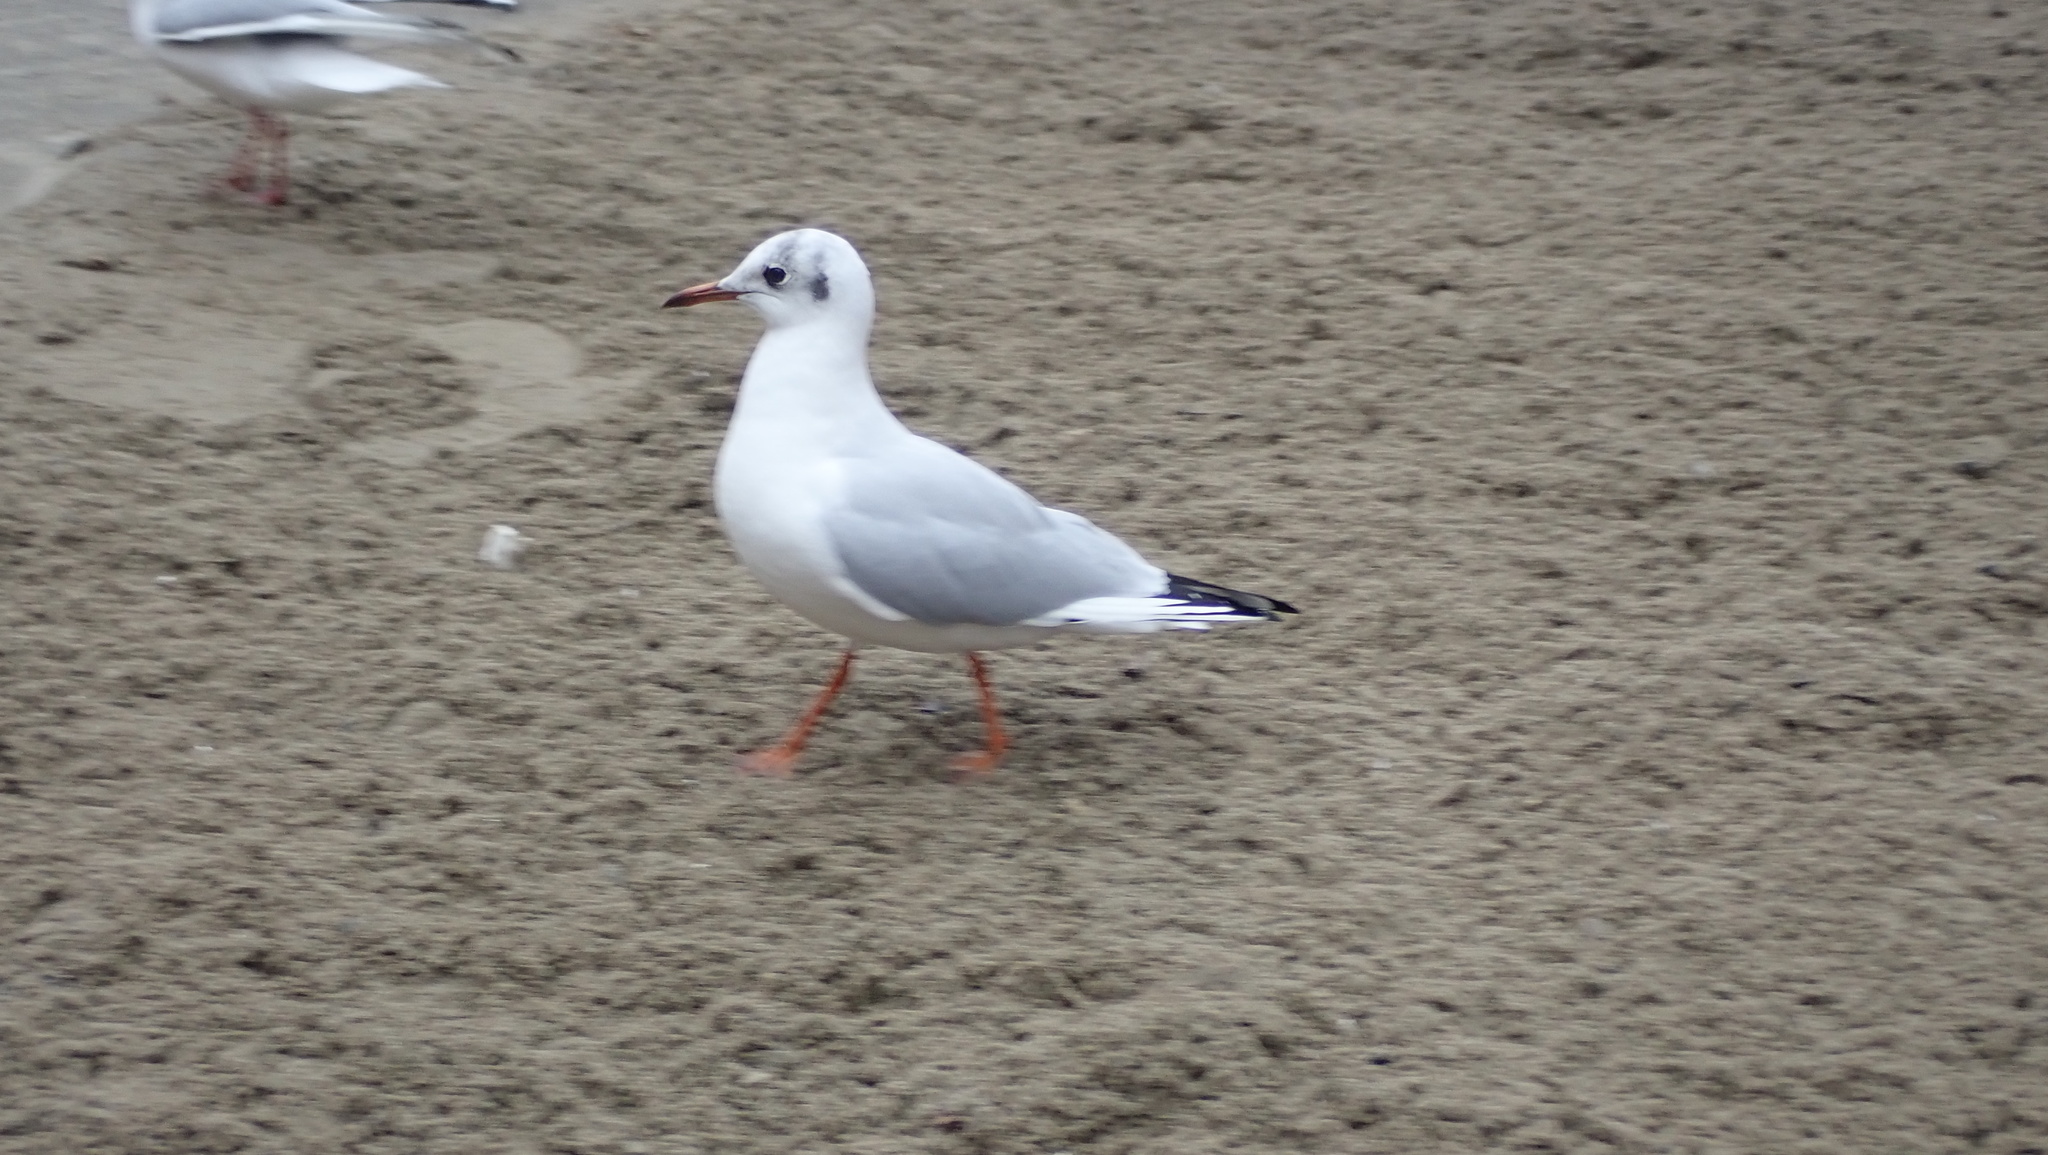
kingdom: Animalia
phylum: Chordata
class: Aves
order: Charadriiformes
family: Laridae
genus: Chroicocephalus
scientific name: Chroicocephalus ridibundus
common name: Black-headed gull
